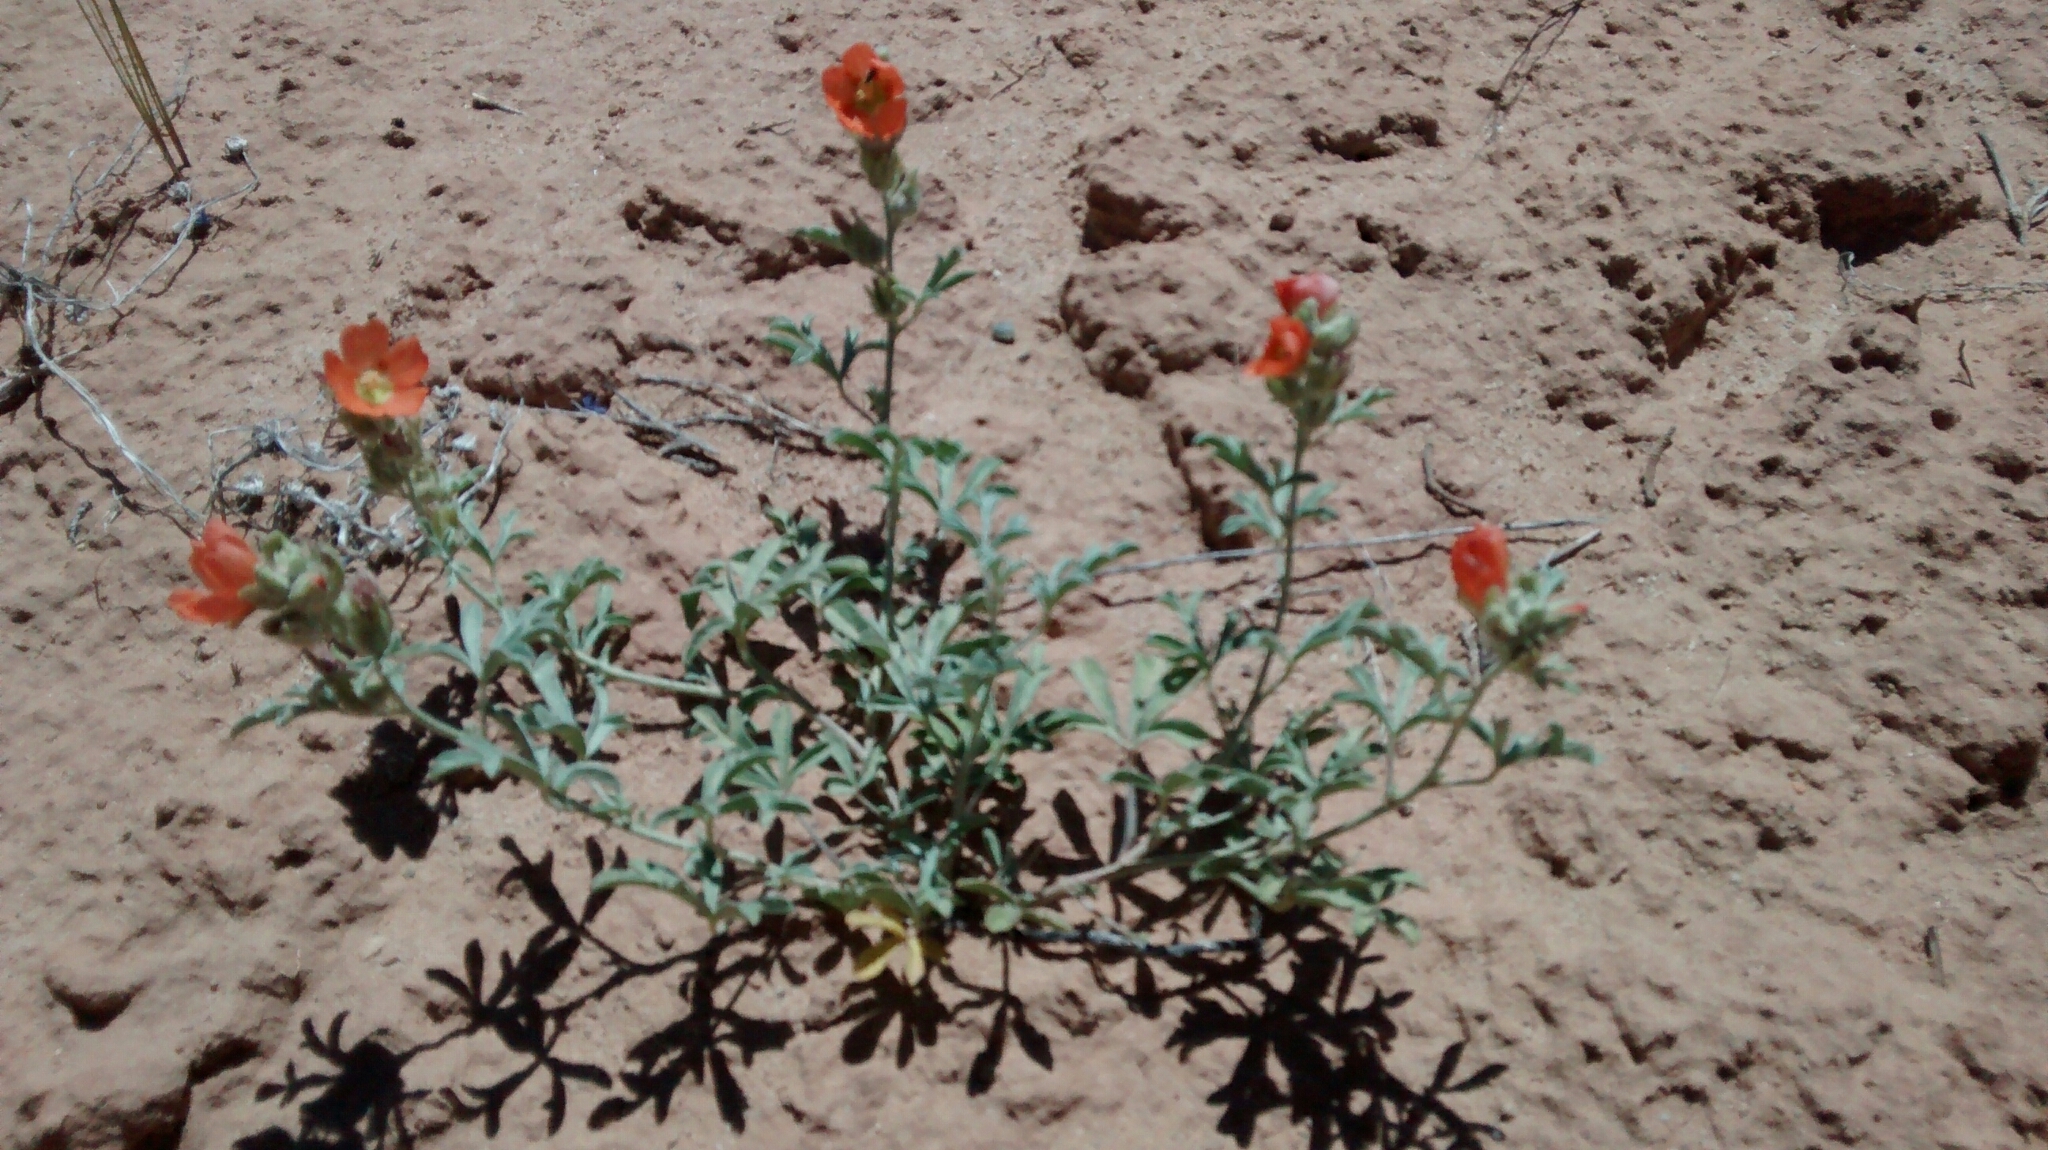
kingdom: Plantae
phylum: Tracheophyta
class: Magnoliopsida
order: Malvales
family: Malvaceae
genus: Sphaeralcea
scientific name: Sphaeralcea coccinea
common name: Moss-rose
